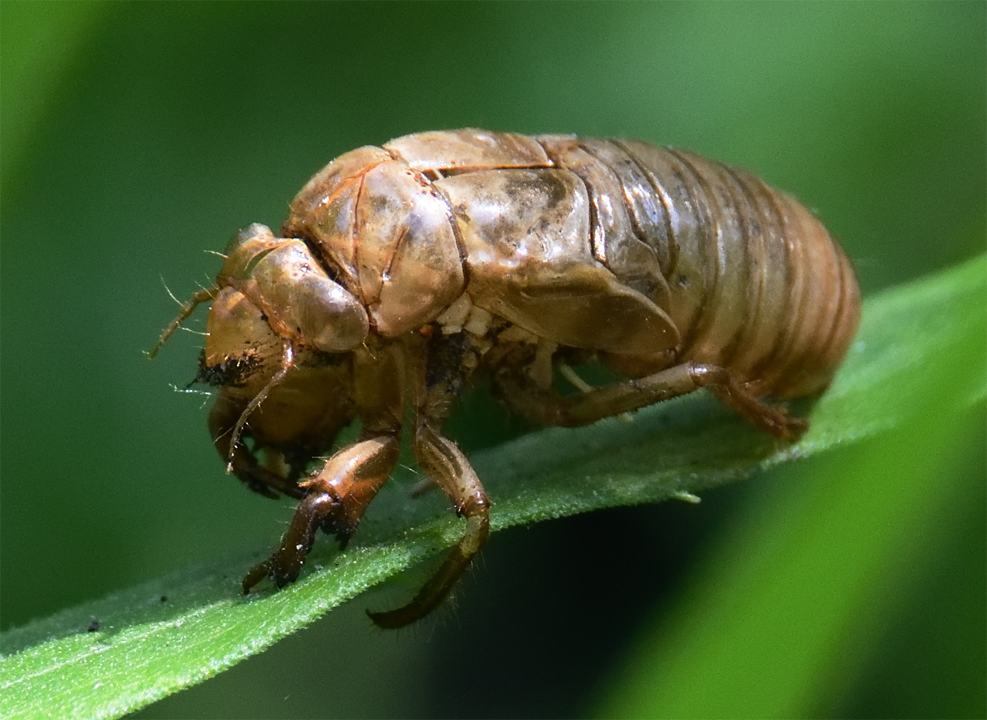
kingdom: Animalia
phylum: Arthropoda
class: Insecta
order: Hemiptera
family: Cicadidae
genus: Magicicada
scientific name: Magicicada
